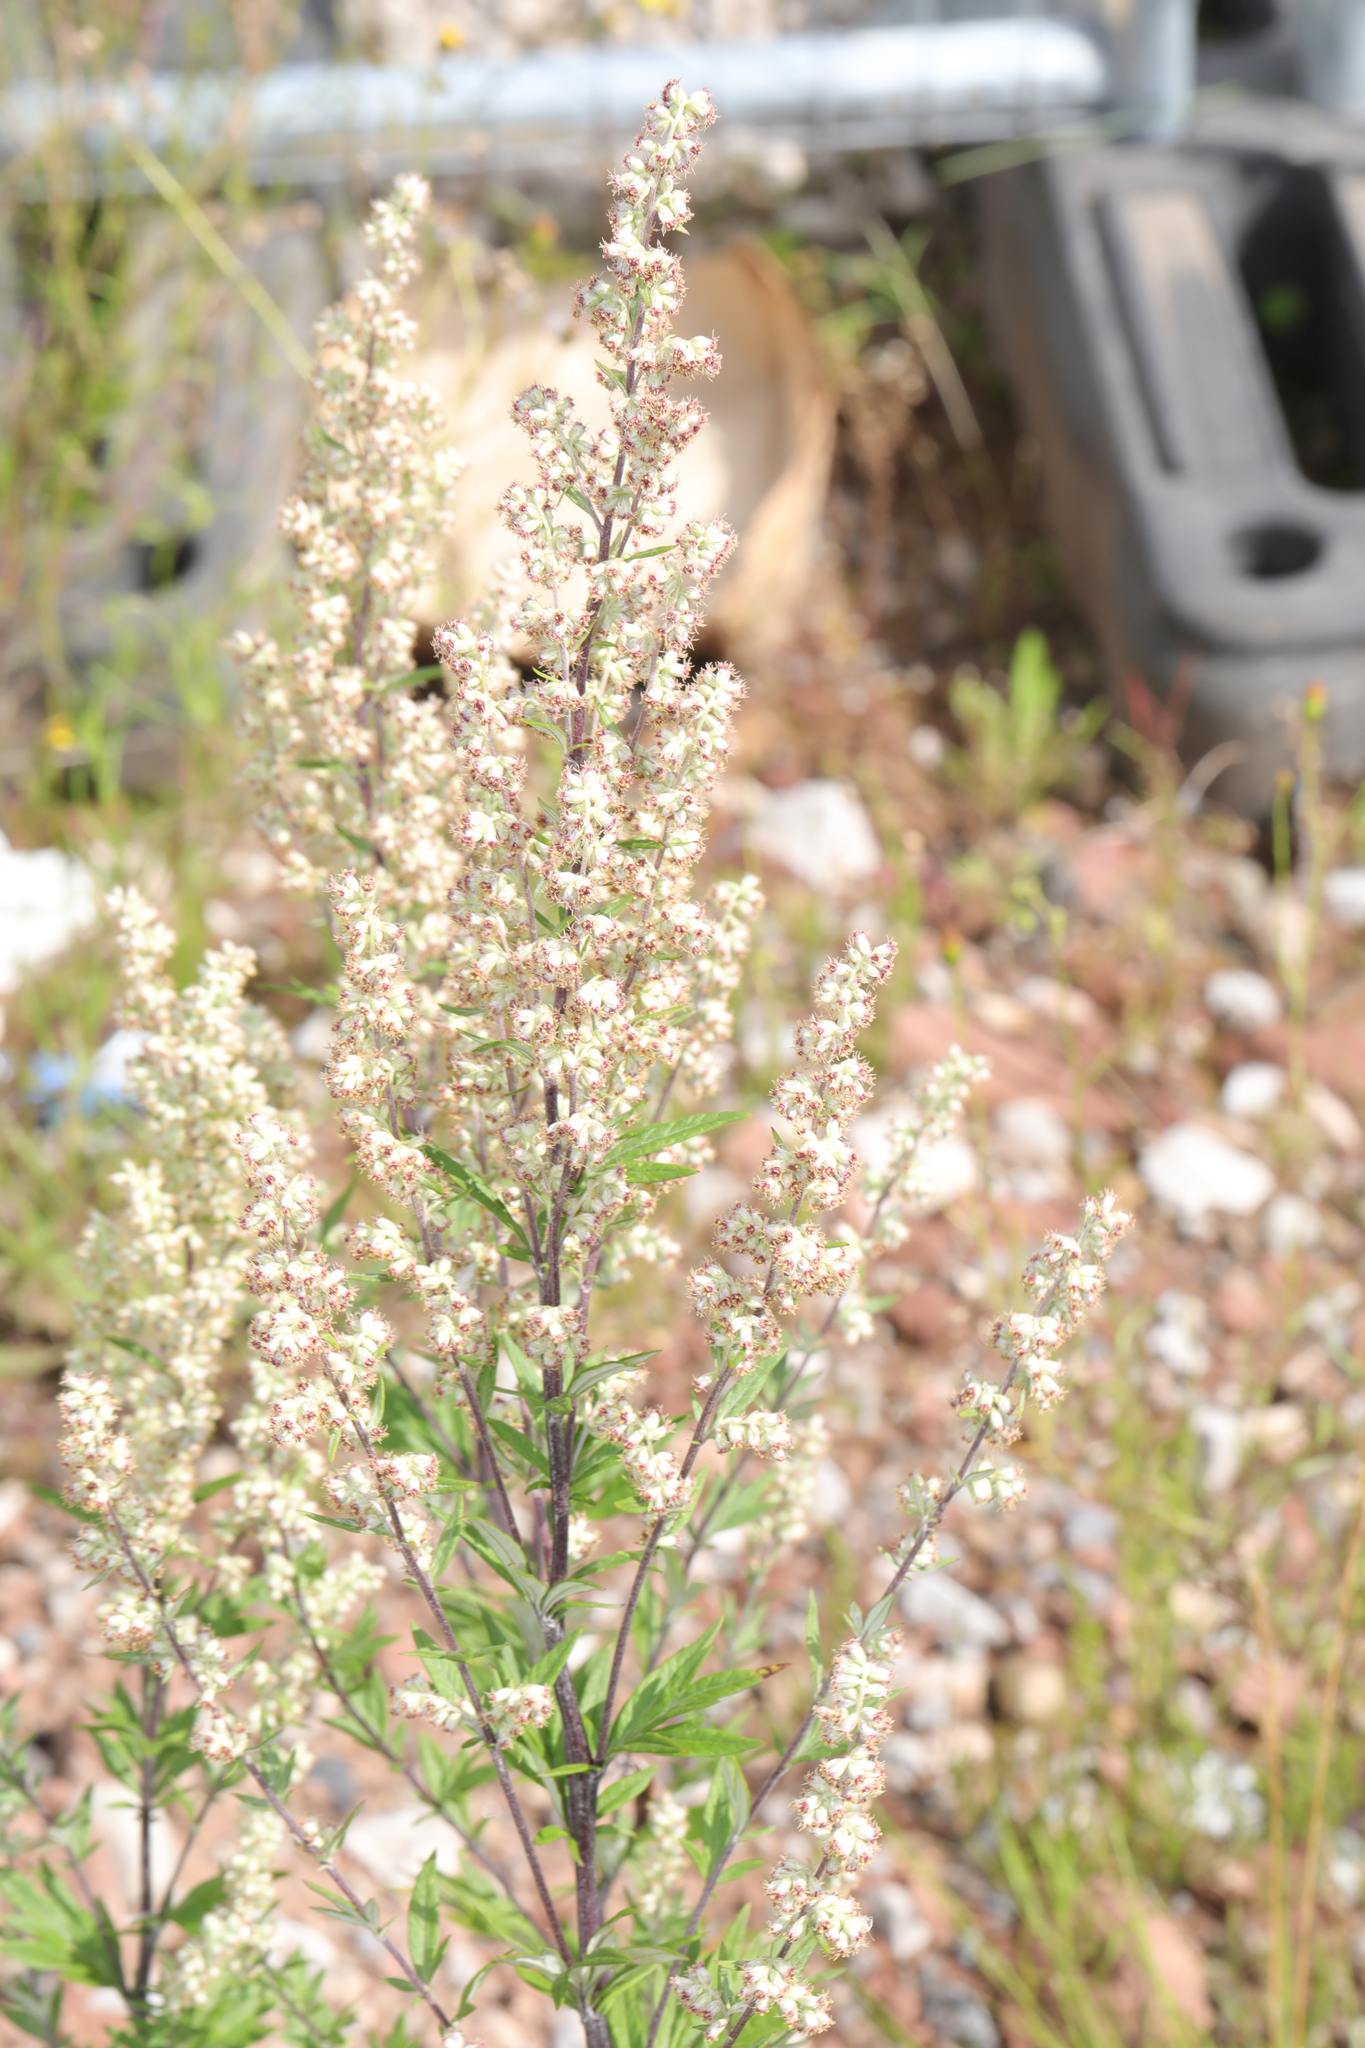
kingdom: Plantae
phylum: Tracheophyta
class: Magnoliopsida
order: Asterales
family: Asteraceae
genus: Artemisia
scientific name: Artemisia vulgaris
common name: Mugwort
